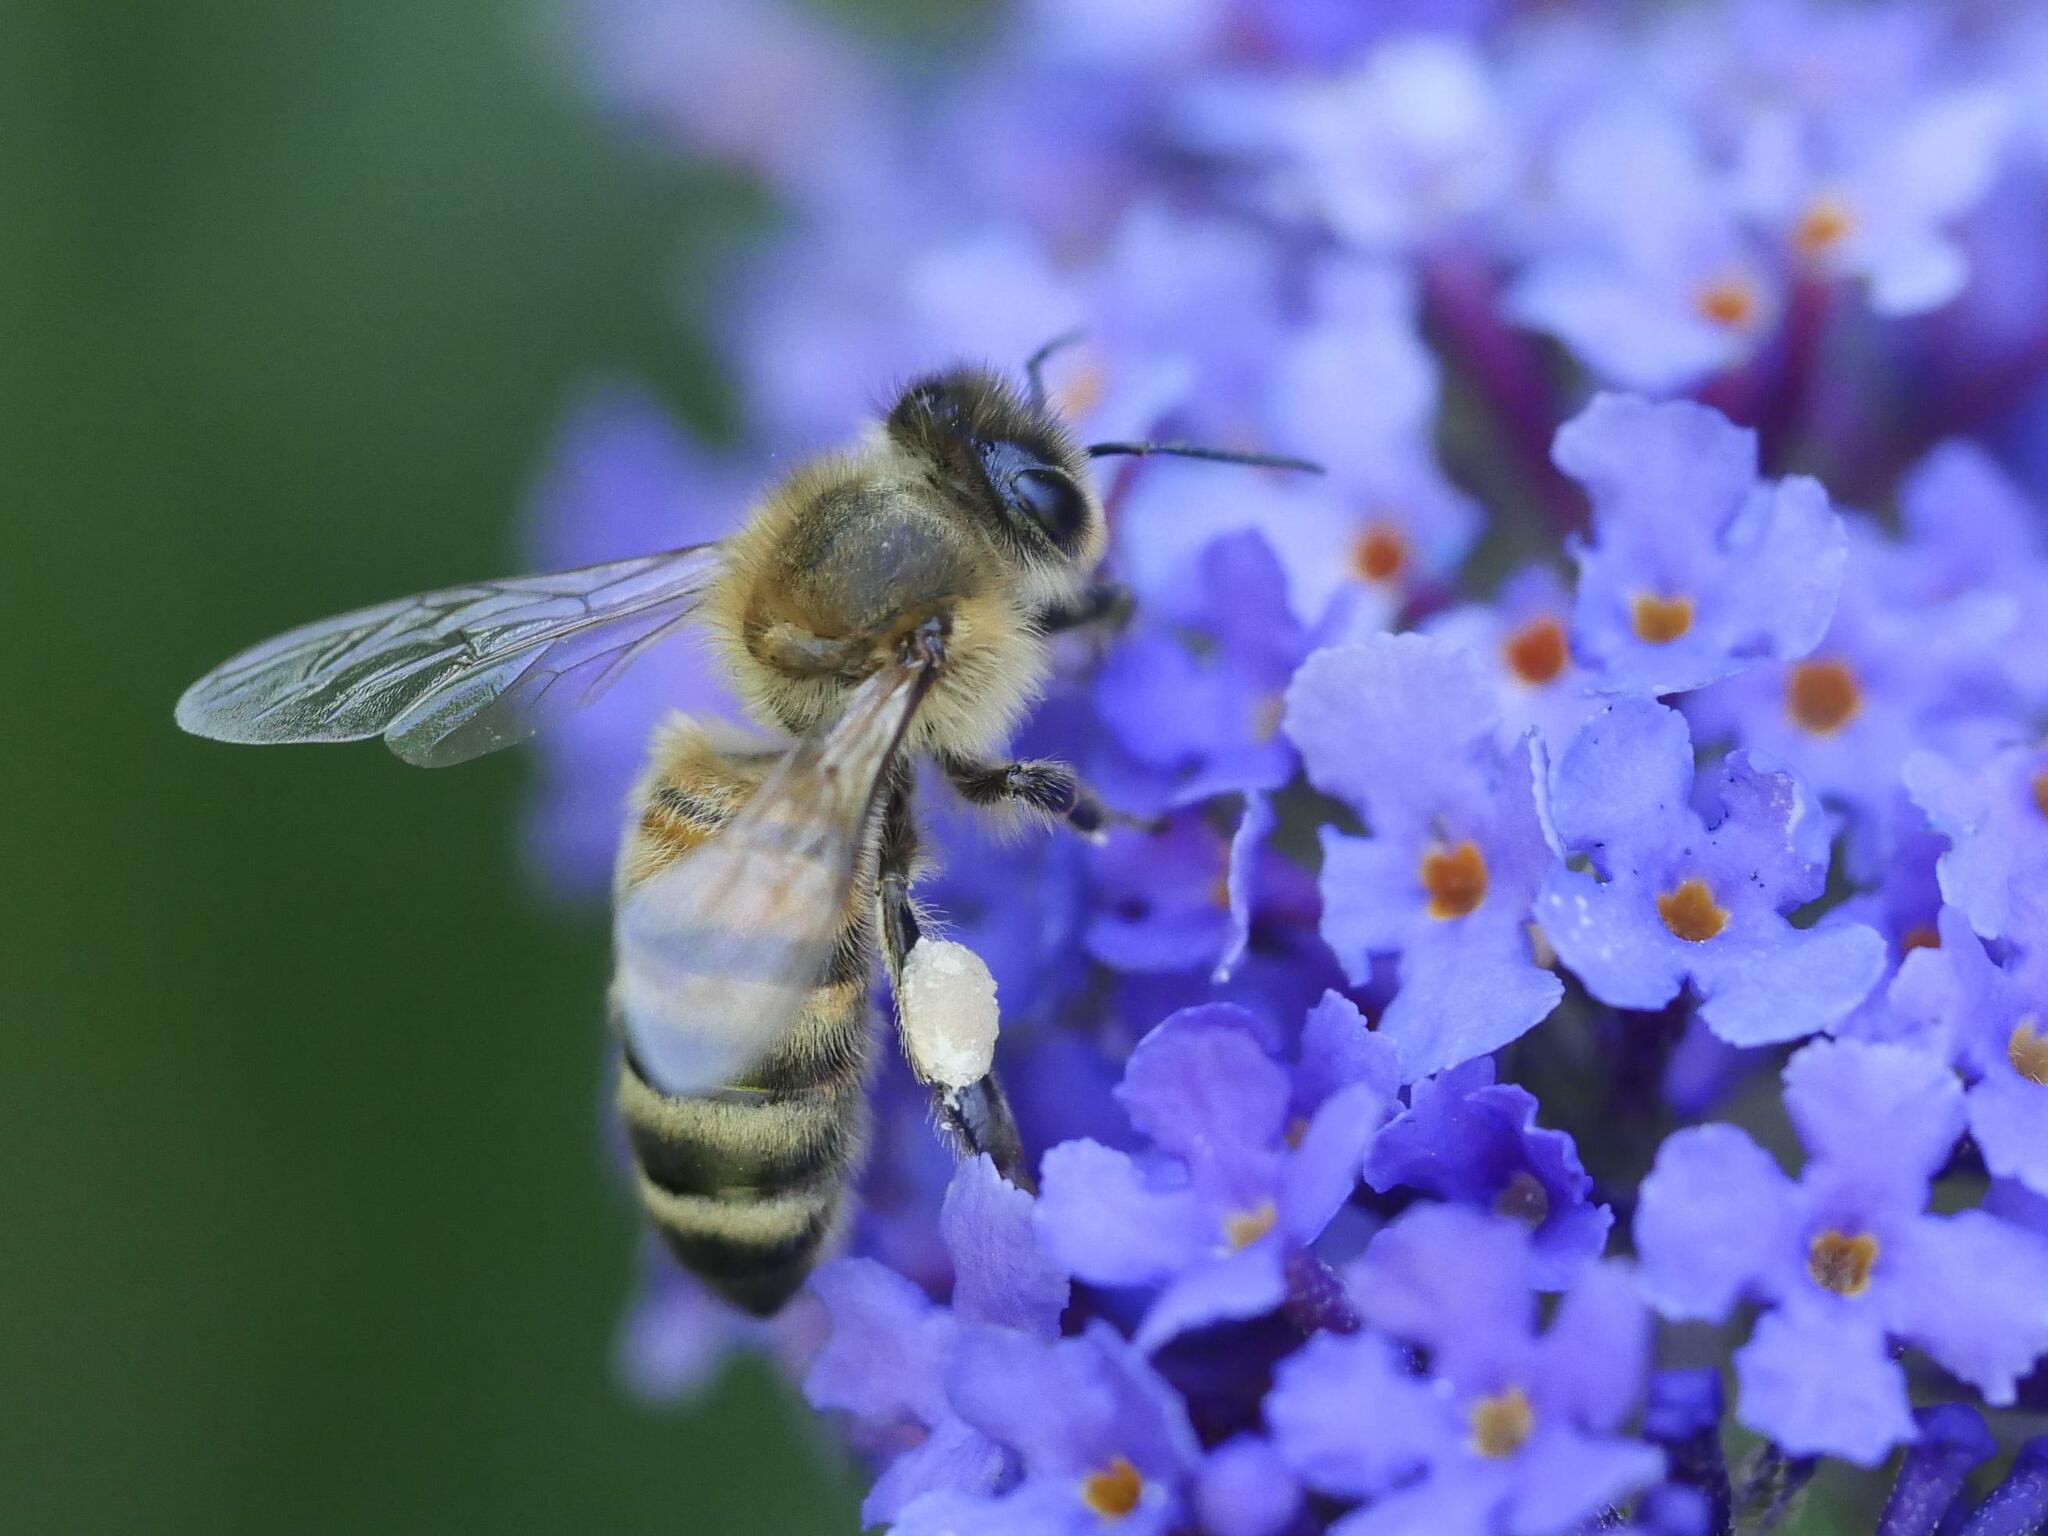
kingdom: Animalia
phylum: Arthropoda
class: Insecta
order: Hymenoptera
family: Apidae
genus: Apis
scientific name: Apis mellifera
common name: Honey bee
